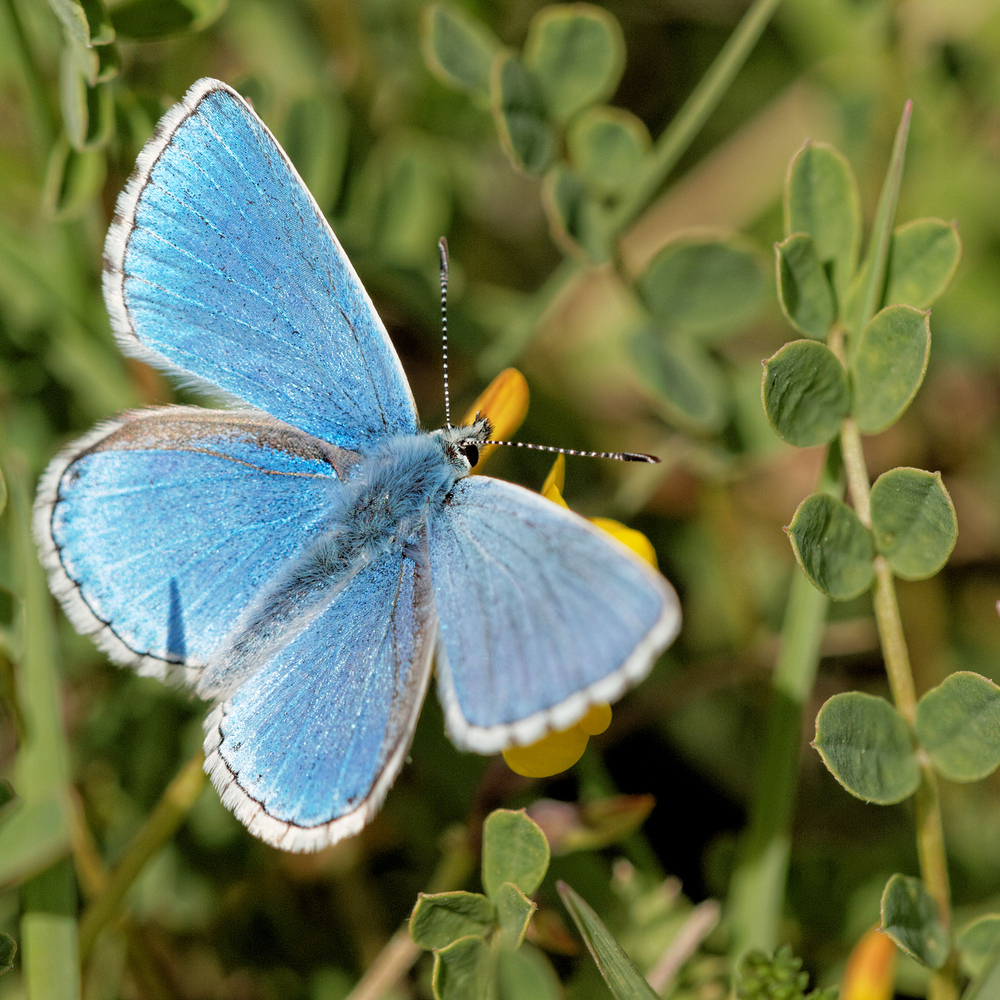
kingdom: Animalia
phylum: Arthropoda
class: Insecta
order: Lepidoptera
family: Lycaenidae
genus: Lysandra
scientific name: Lysandra bellargus
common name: Adonis blue
